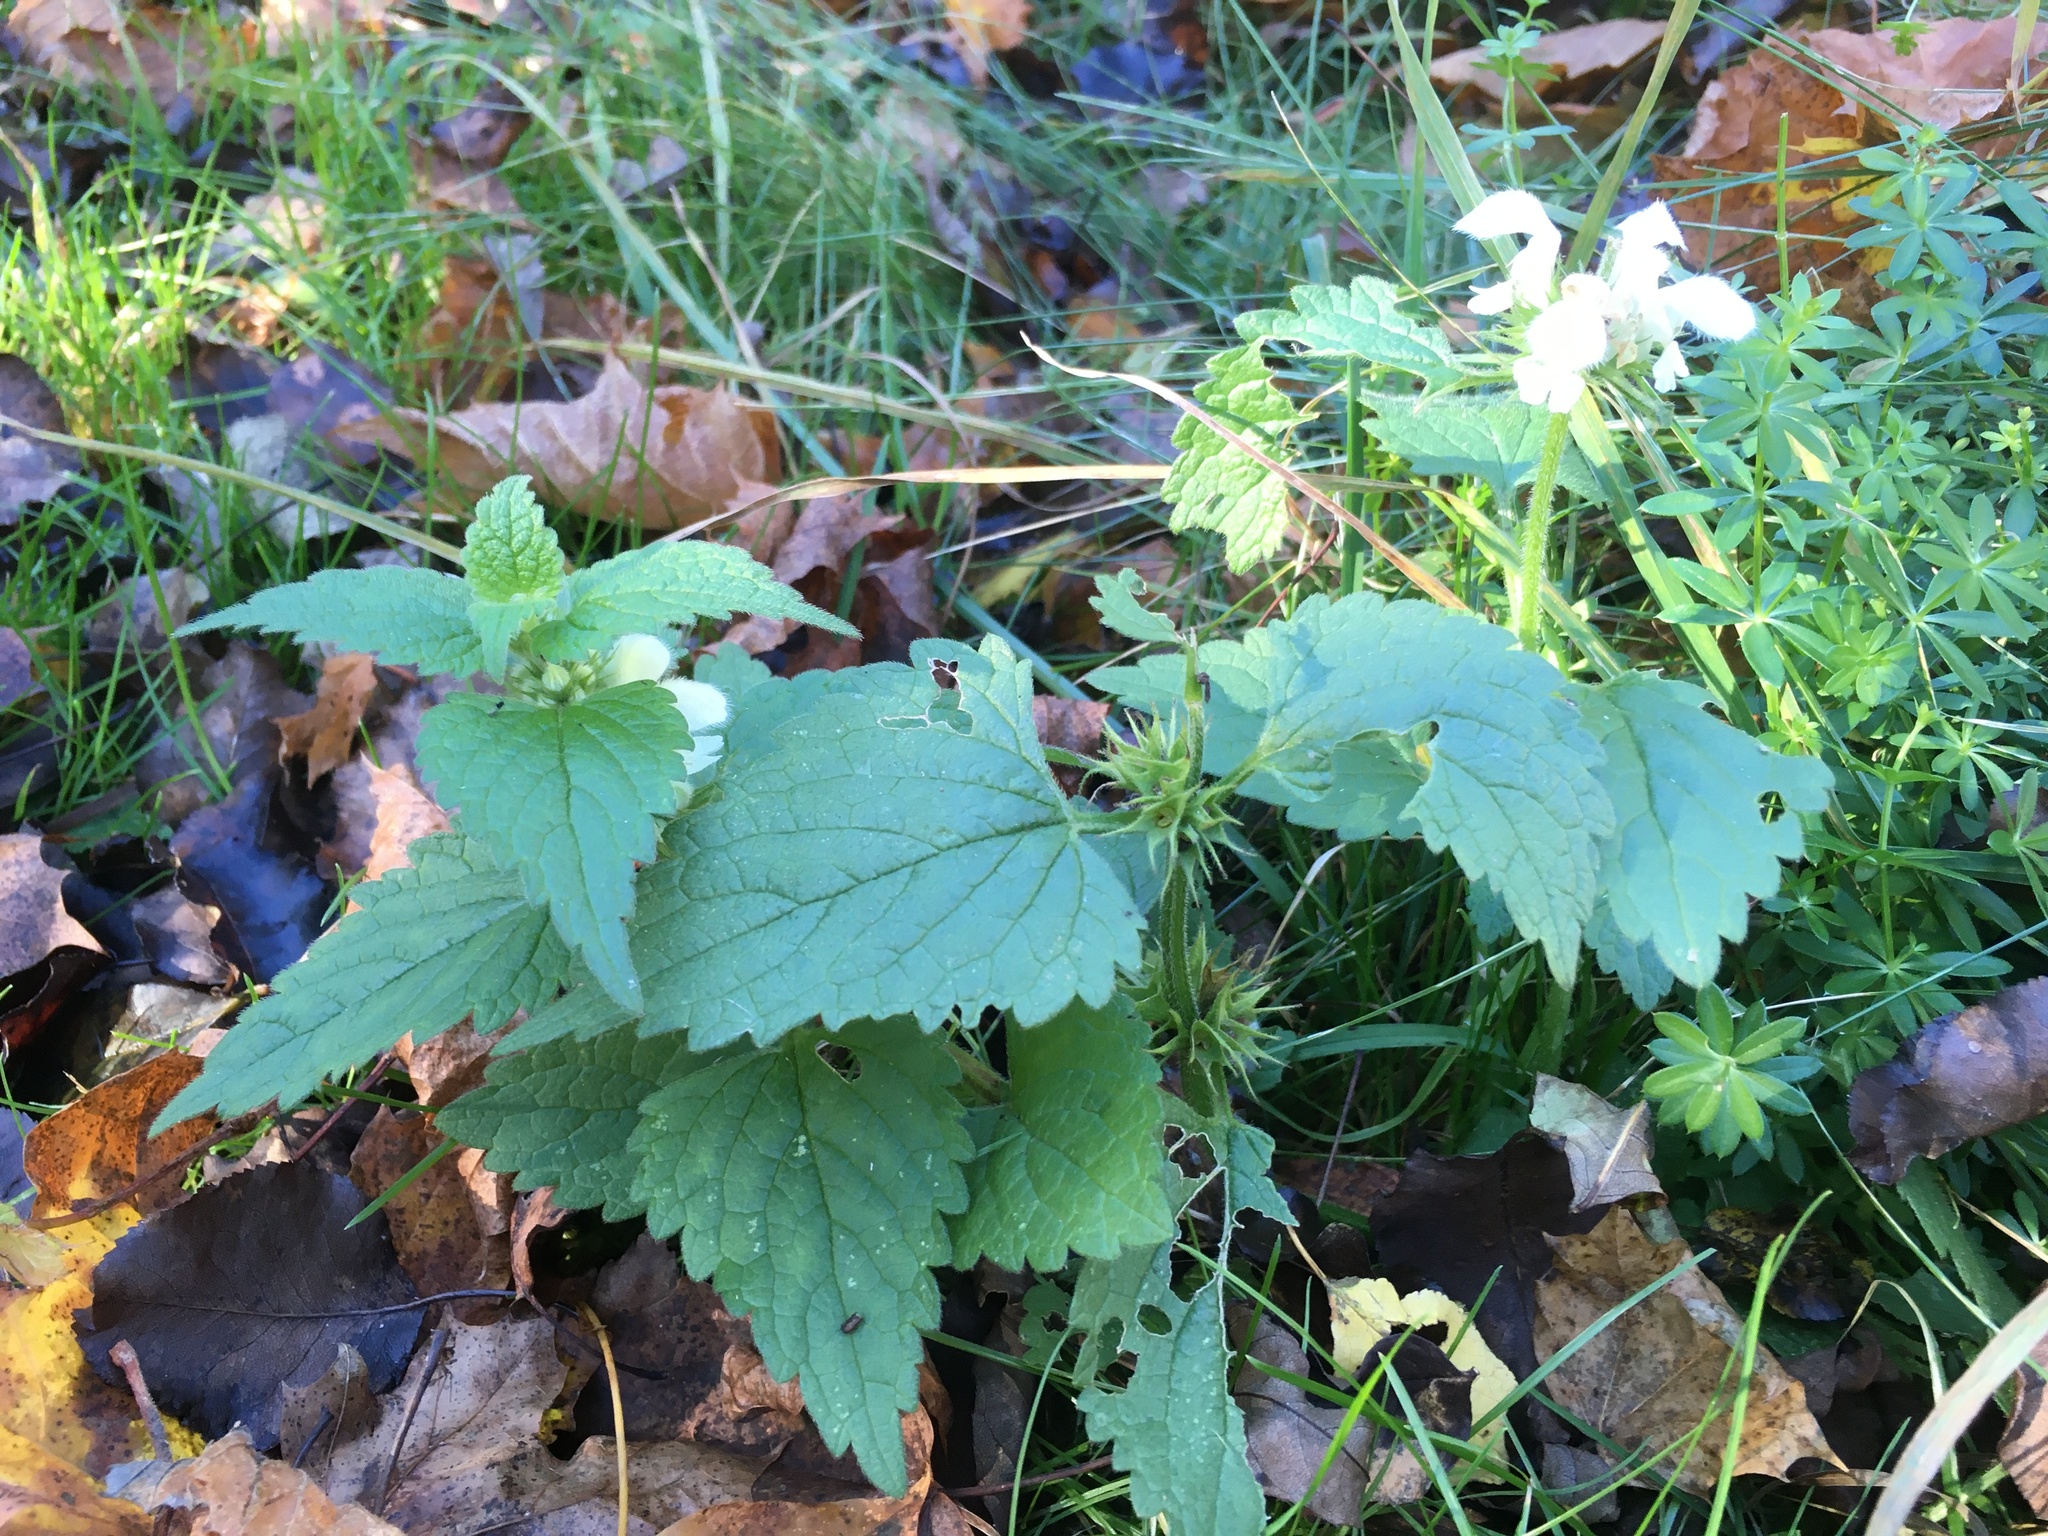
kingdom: Plantae
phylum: Tracheophyta
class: Magnoliopsida
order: Lamiales
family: Lamiaceae
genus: Lamium
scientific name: Lamium album
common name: White dead-nettle
